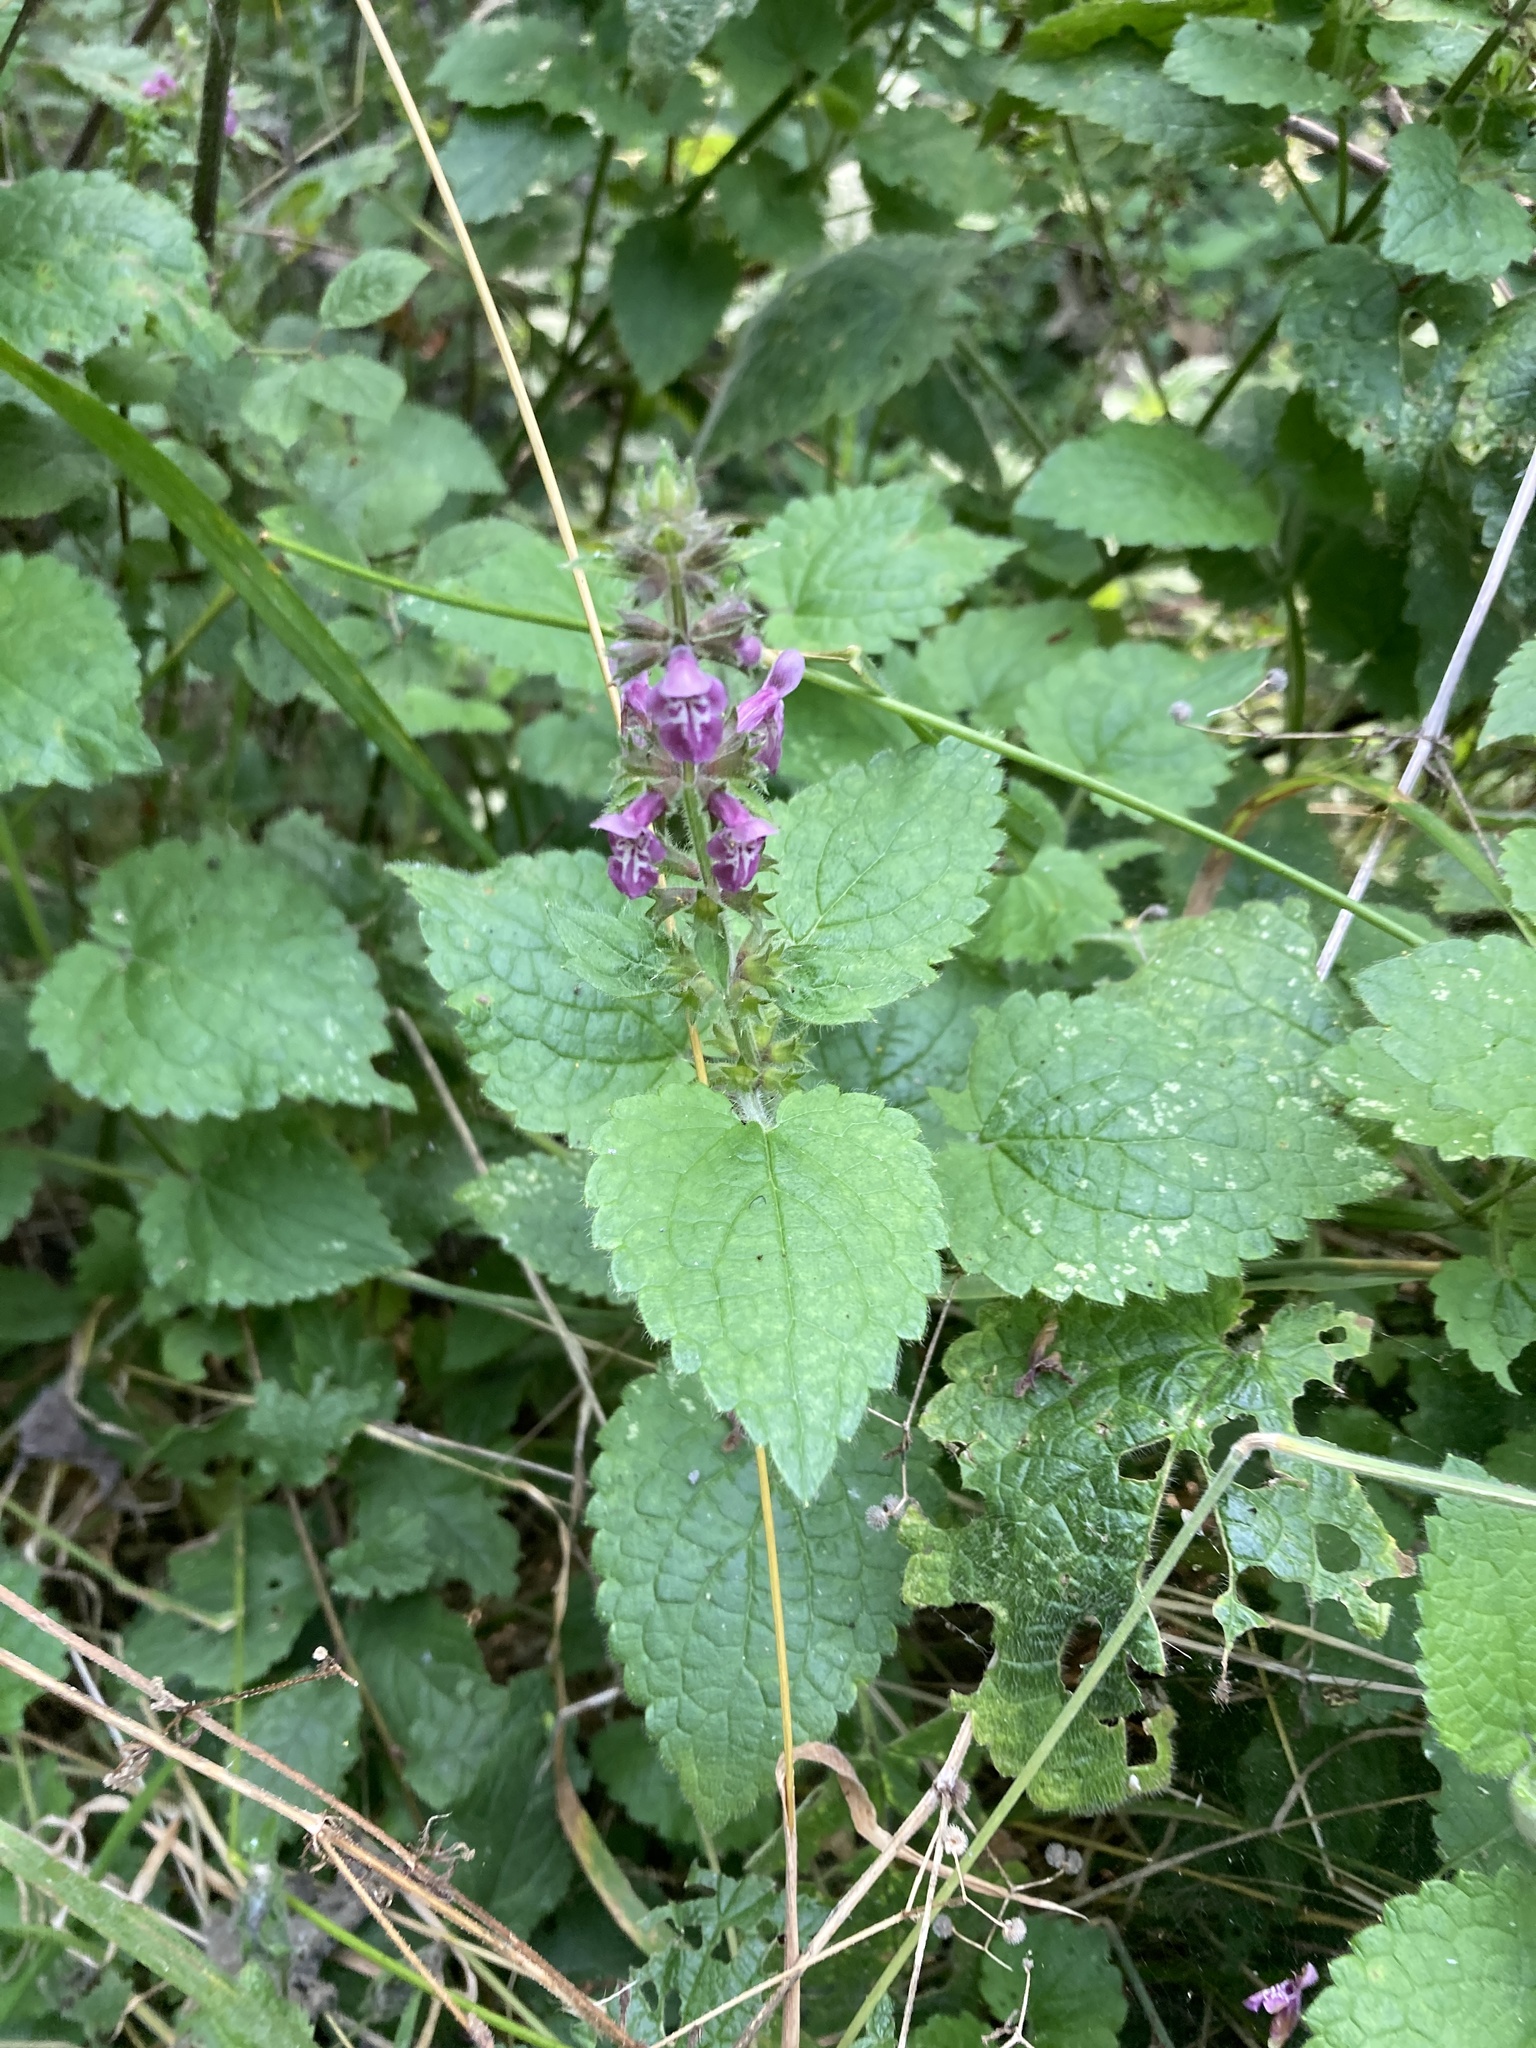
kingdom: Plantae
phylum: Tracheophyta
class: Magnoliopsida
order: Lamiales
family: Lamiaceae
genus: Stachys
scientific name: Stachys sylvatica
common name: Hedge woundwort
